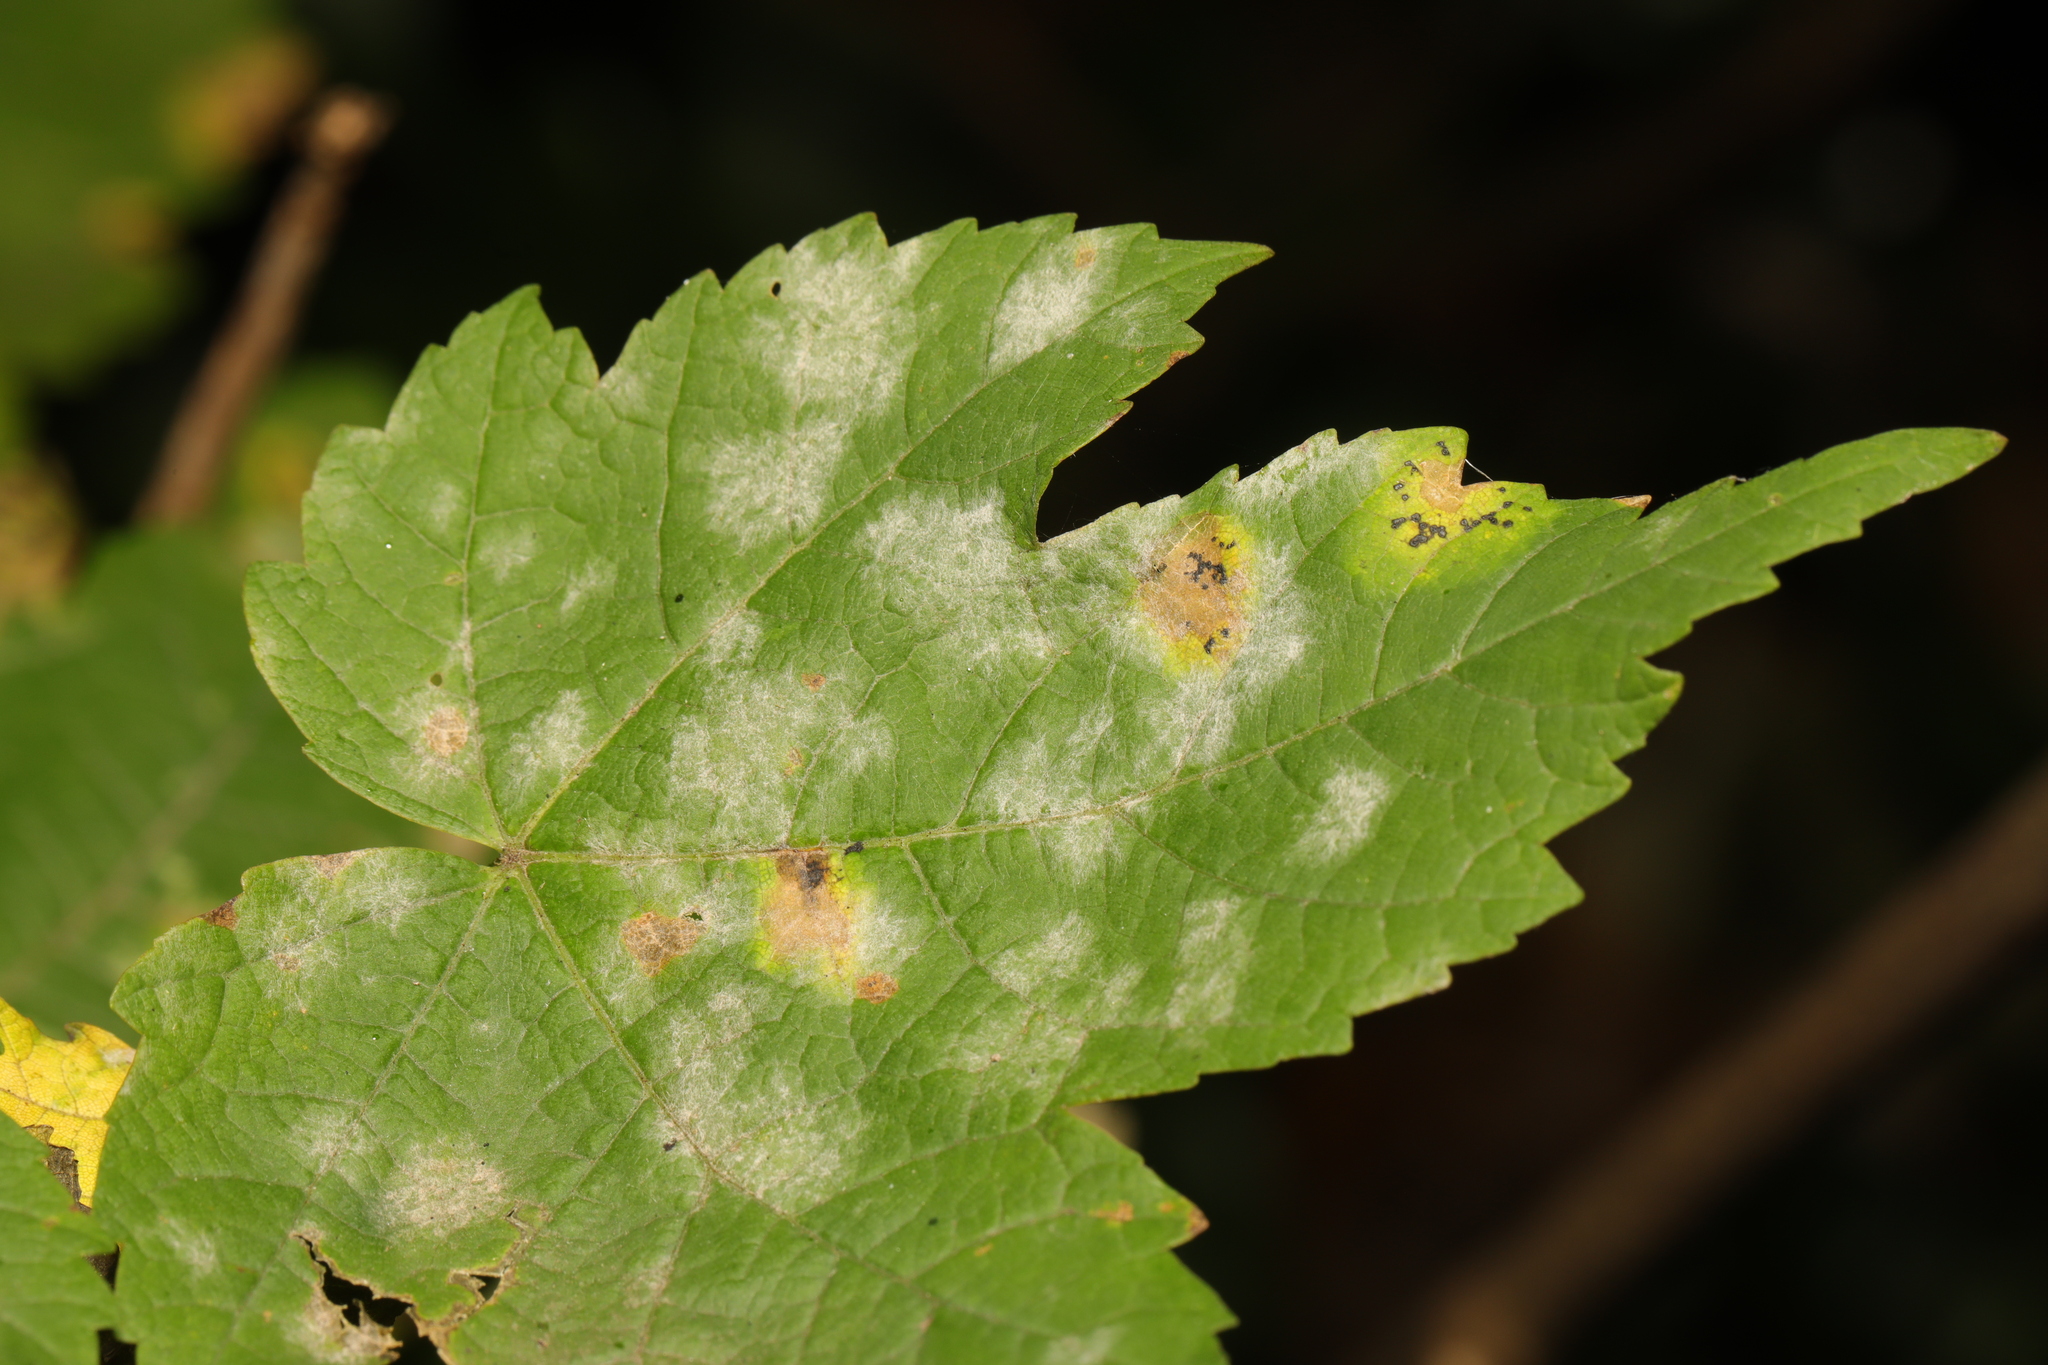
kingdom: Fungi
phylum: Ascomycota
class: Leotiomycetes
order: Helotiales
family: Erysiphaceae
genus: Sawadaea
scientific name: Sawadaea bicornis
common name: Maple mildew
